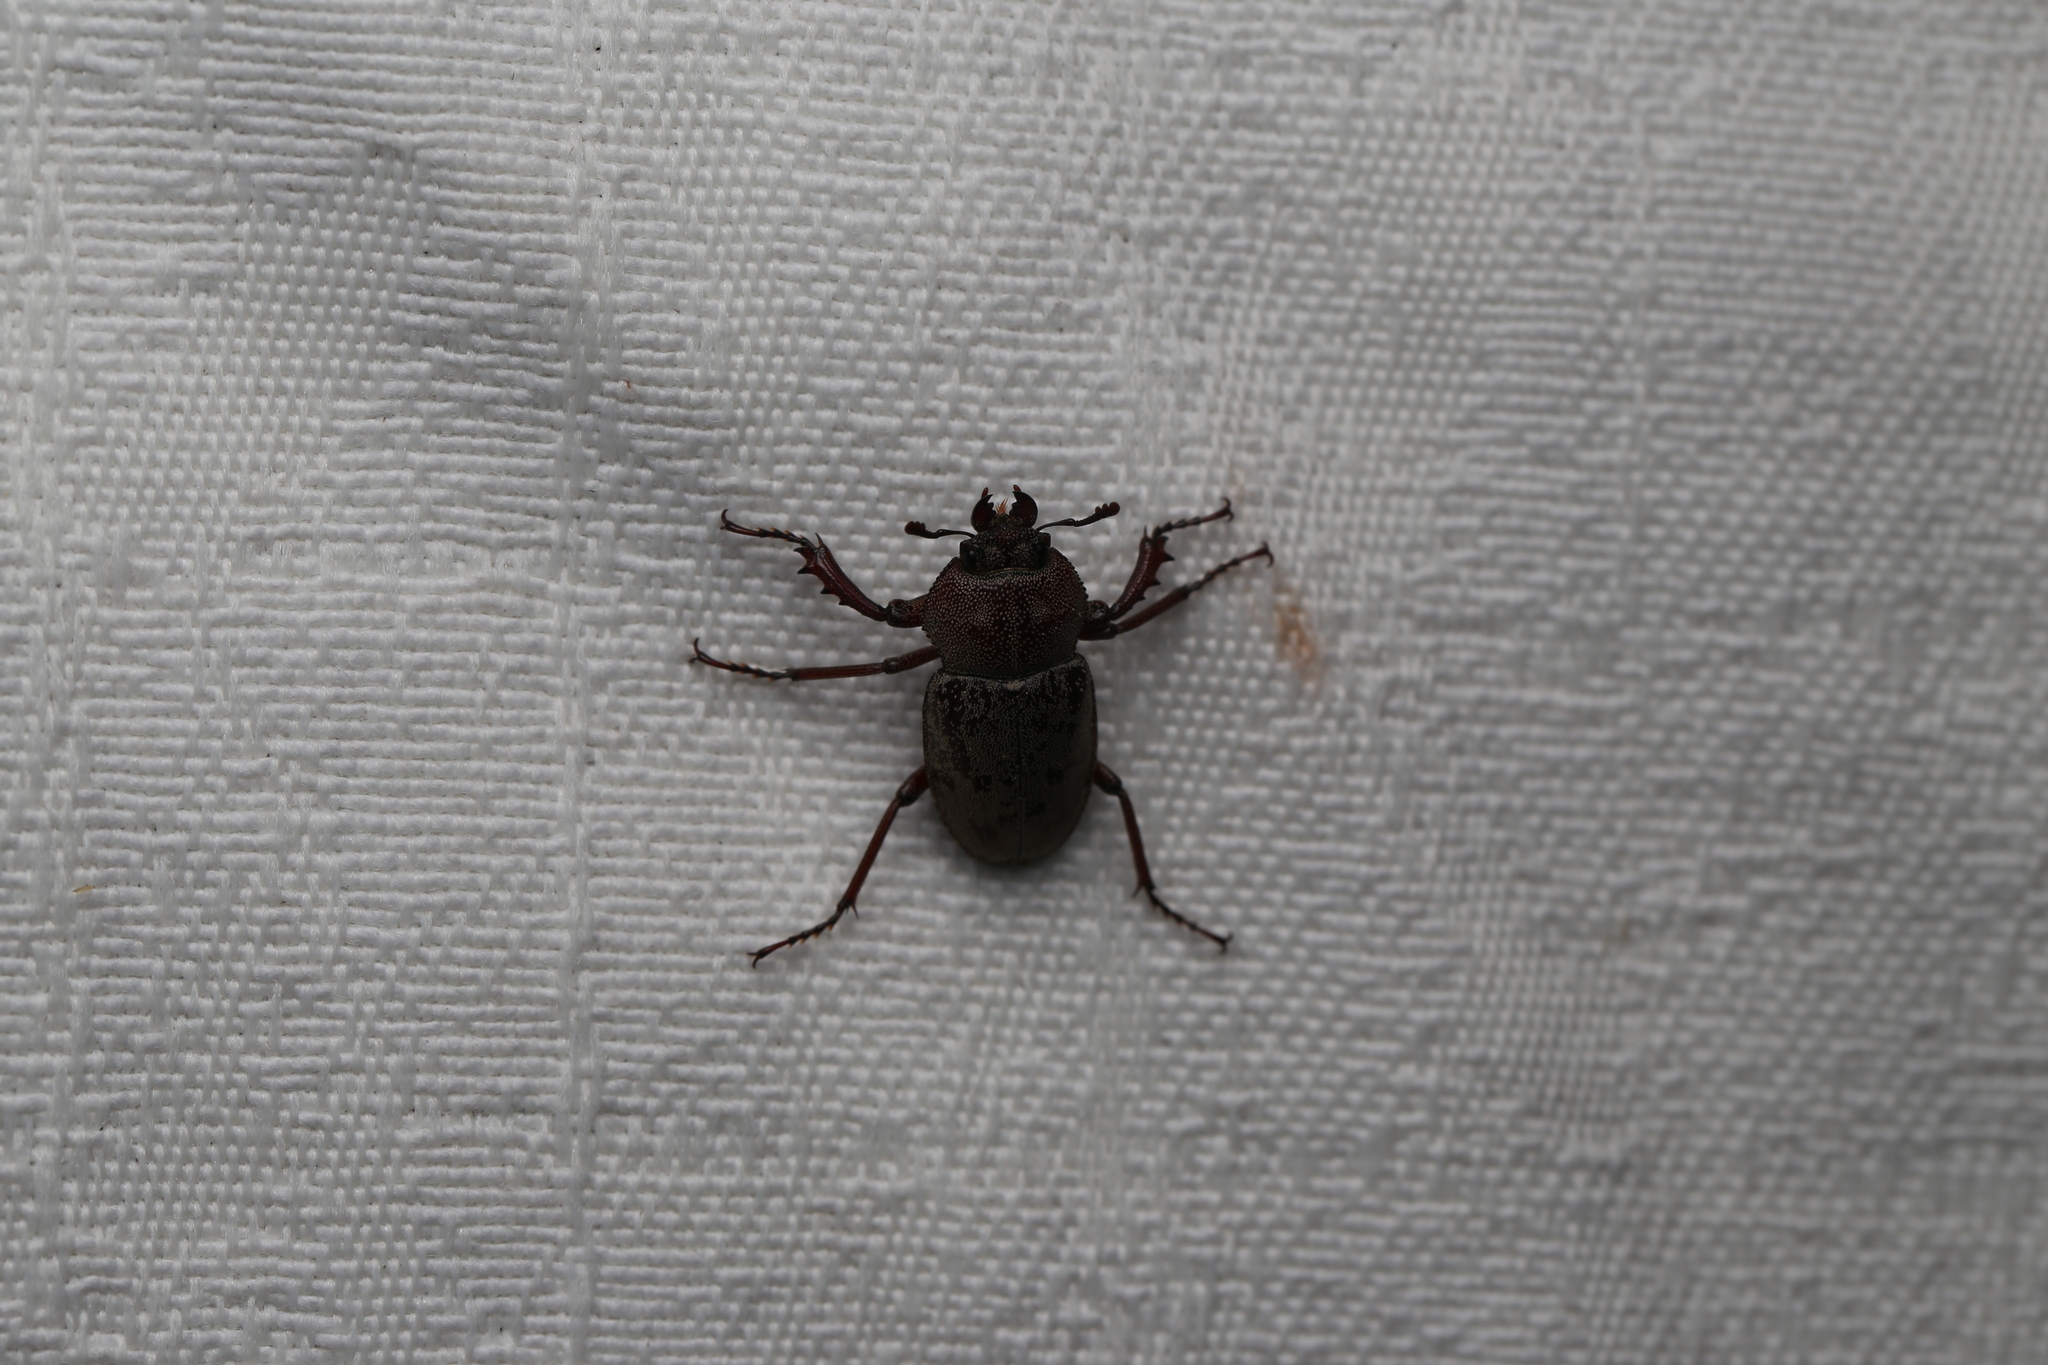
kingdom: Animalia
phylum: Arthropoda
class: Insecta
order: Coleoptera
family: Lucanidae
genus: Cacostomus
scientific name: Cacostomus squamosus
